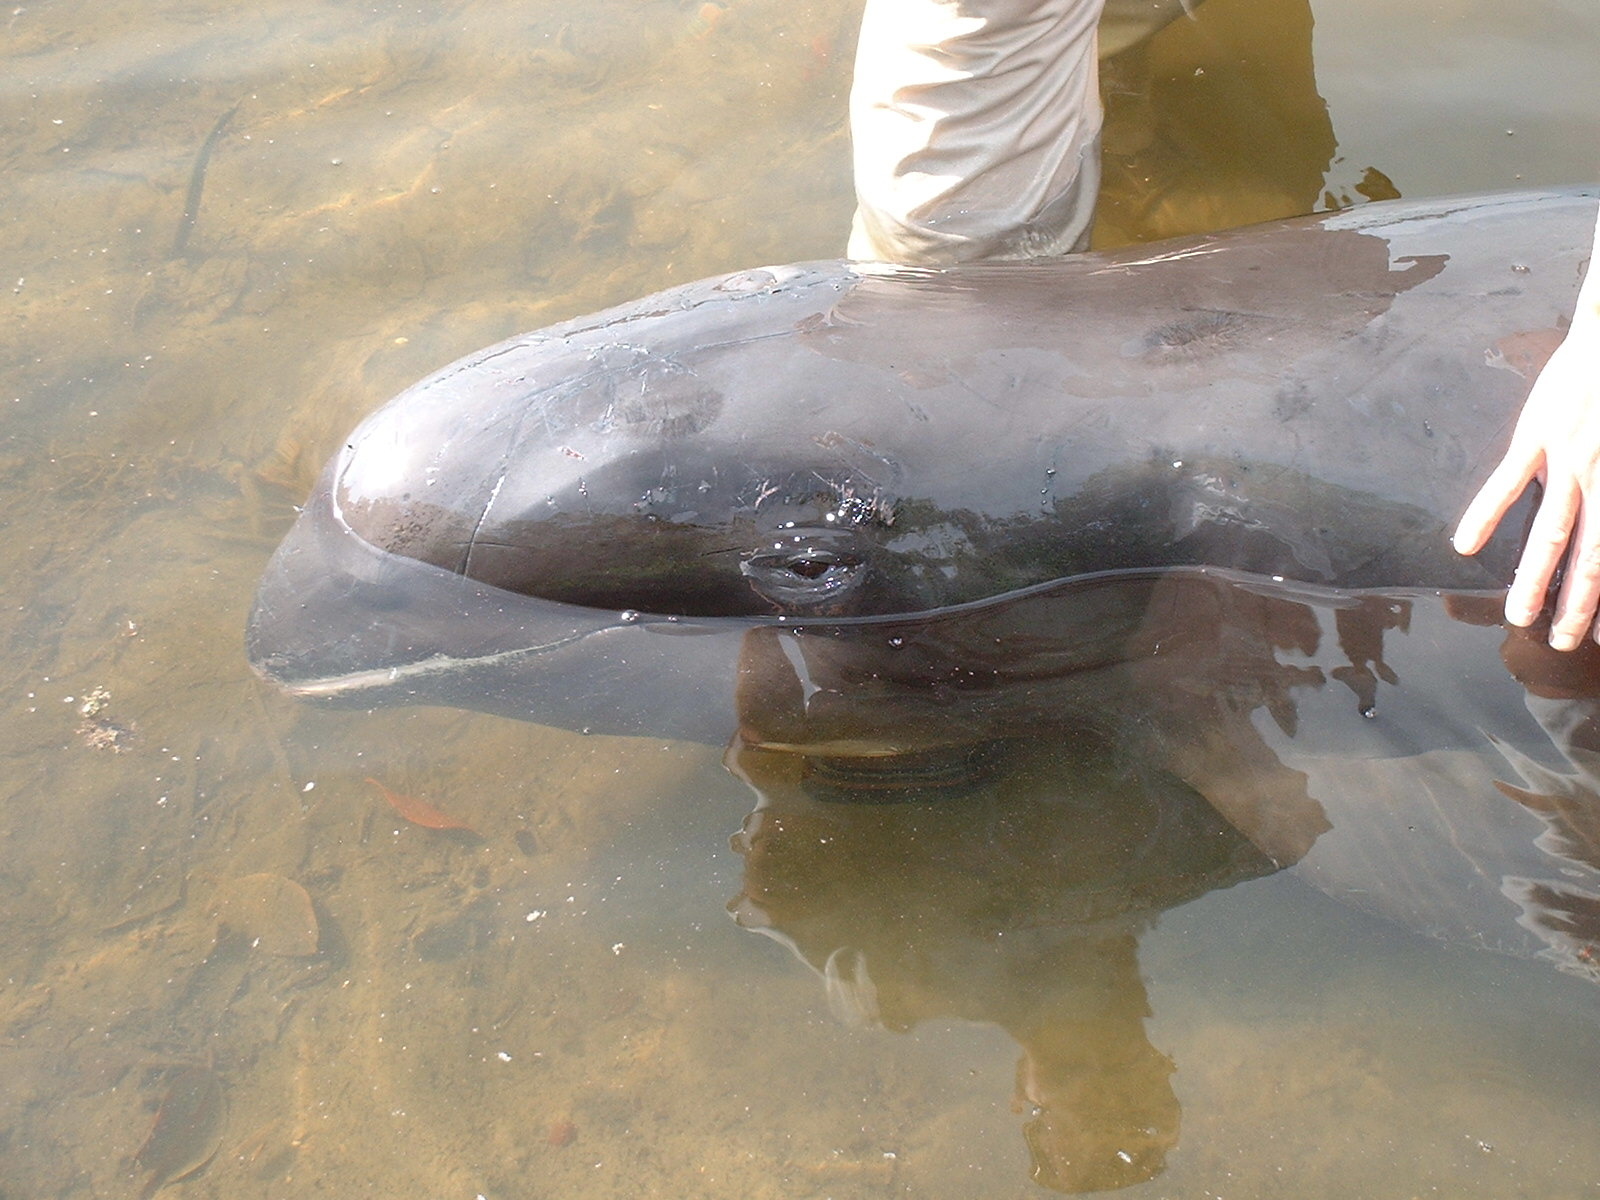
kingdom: Animalia
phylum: Chordata
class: Mammalia
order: Cetacea
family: Delphinidae
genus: Peponocephala
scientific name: Peponocephala electra
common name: Melon-headed whale
